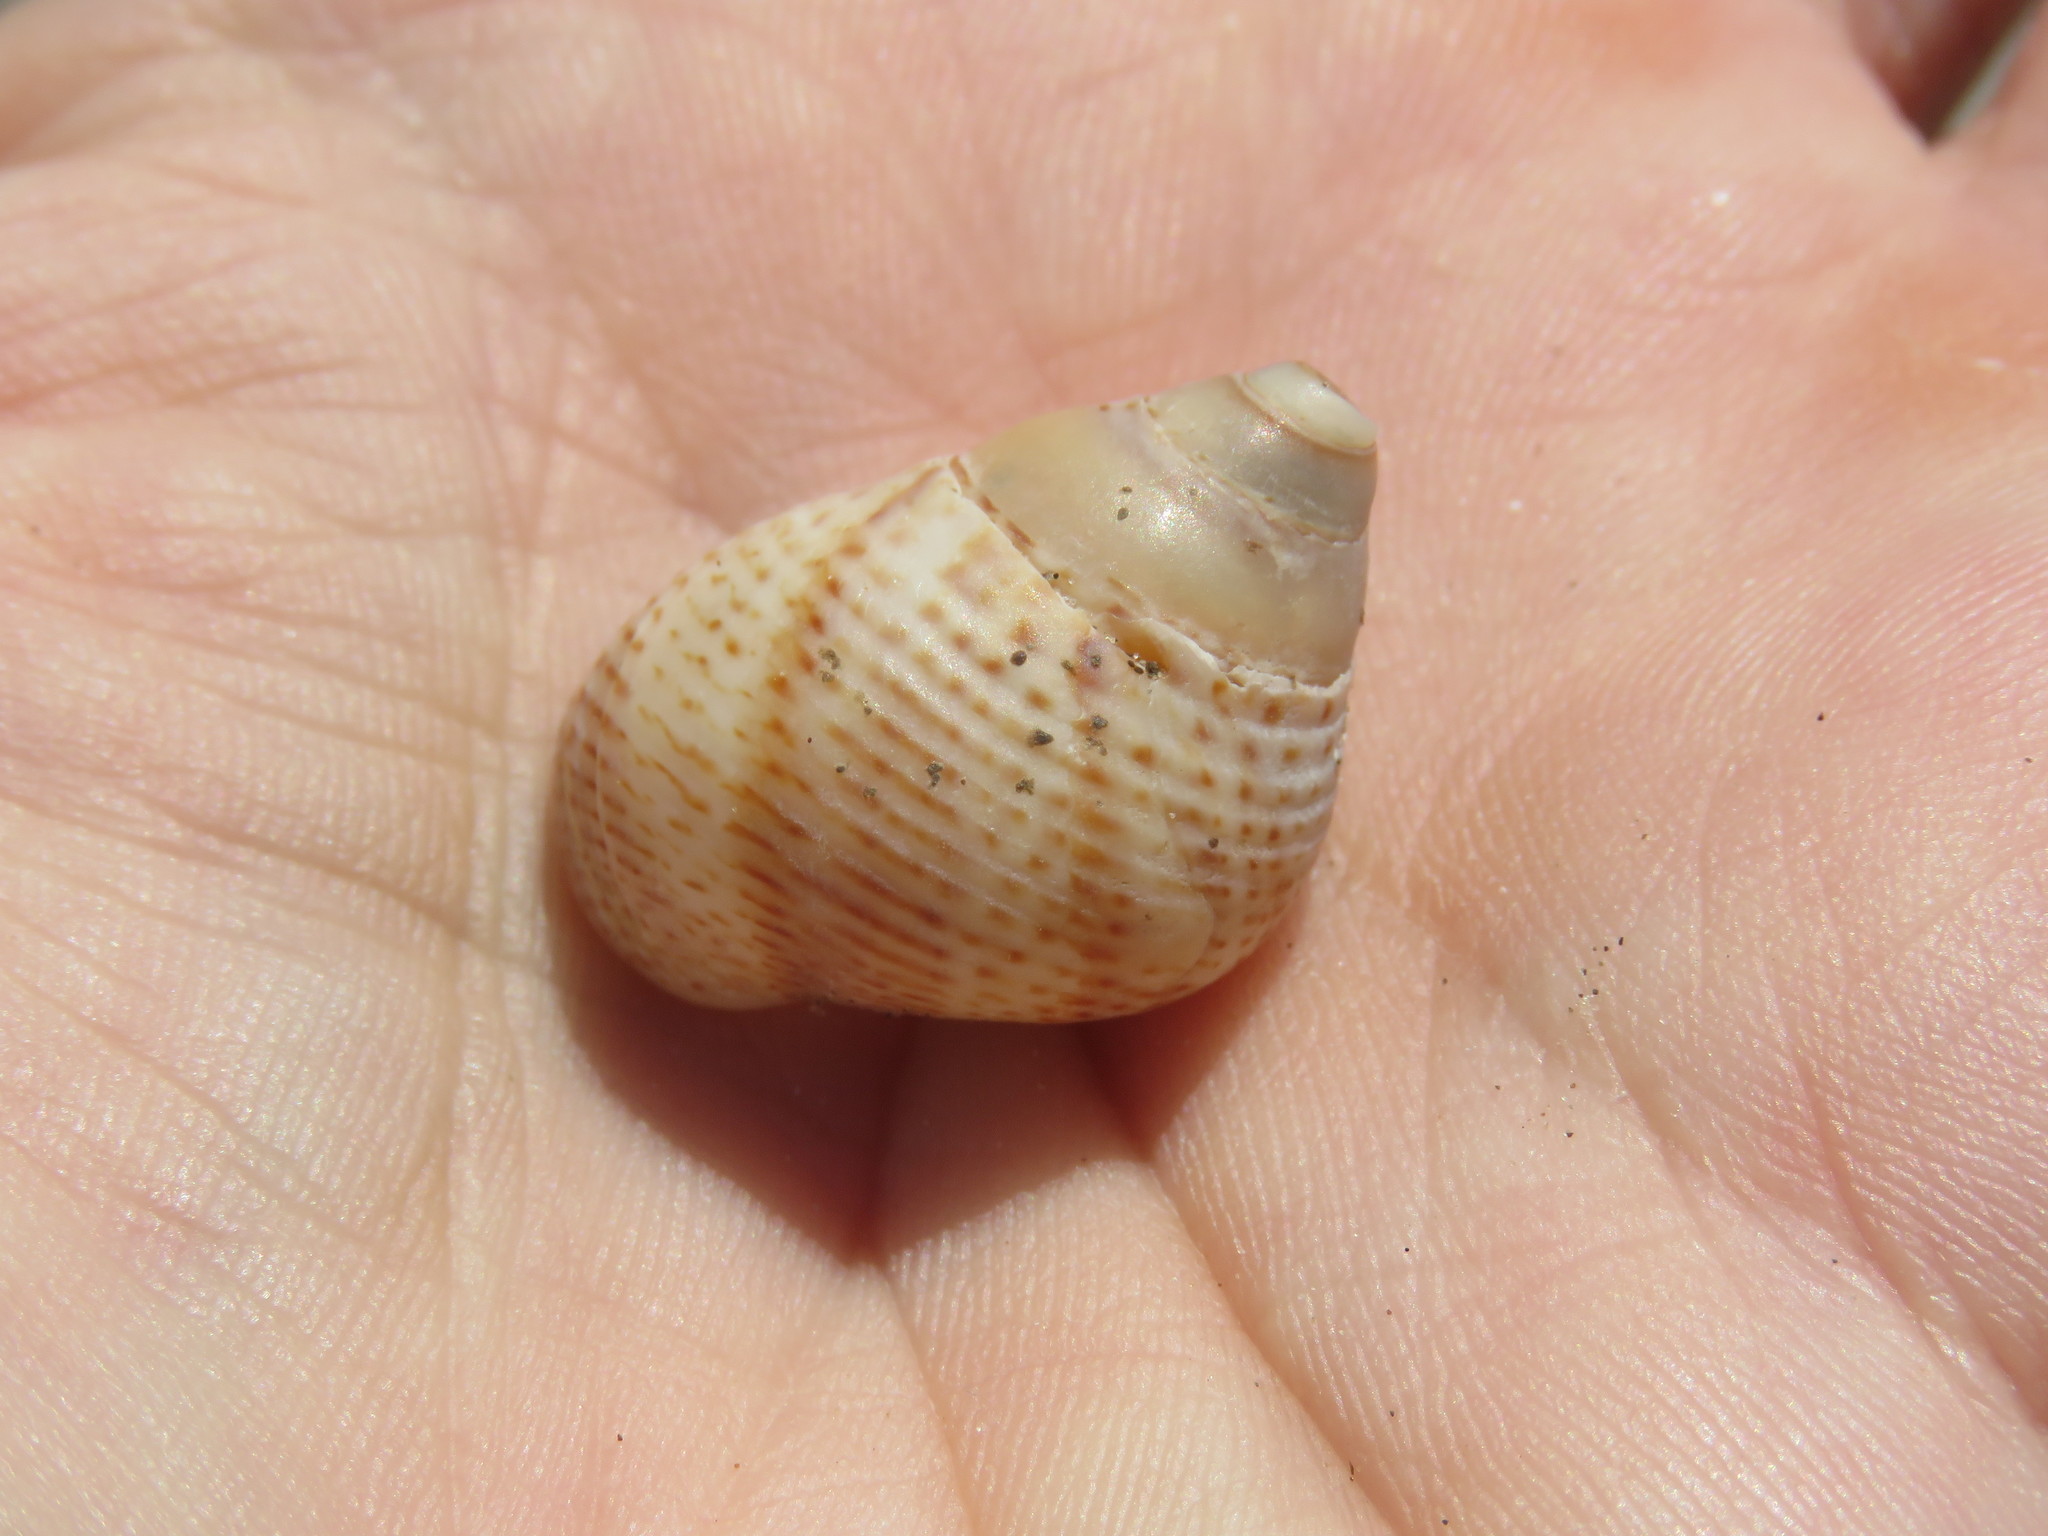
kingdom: Animalia
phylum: Mollusca
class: Gastropoda
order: Littorinimorpha
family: Littorinidae
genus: Littoraria
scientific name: Littoraria irrorata
